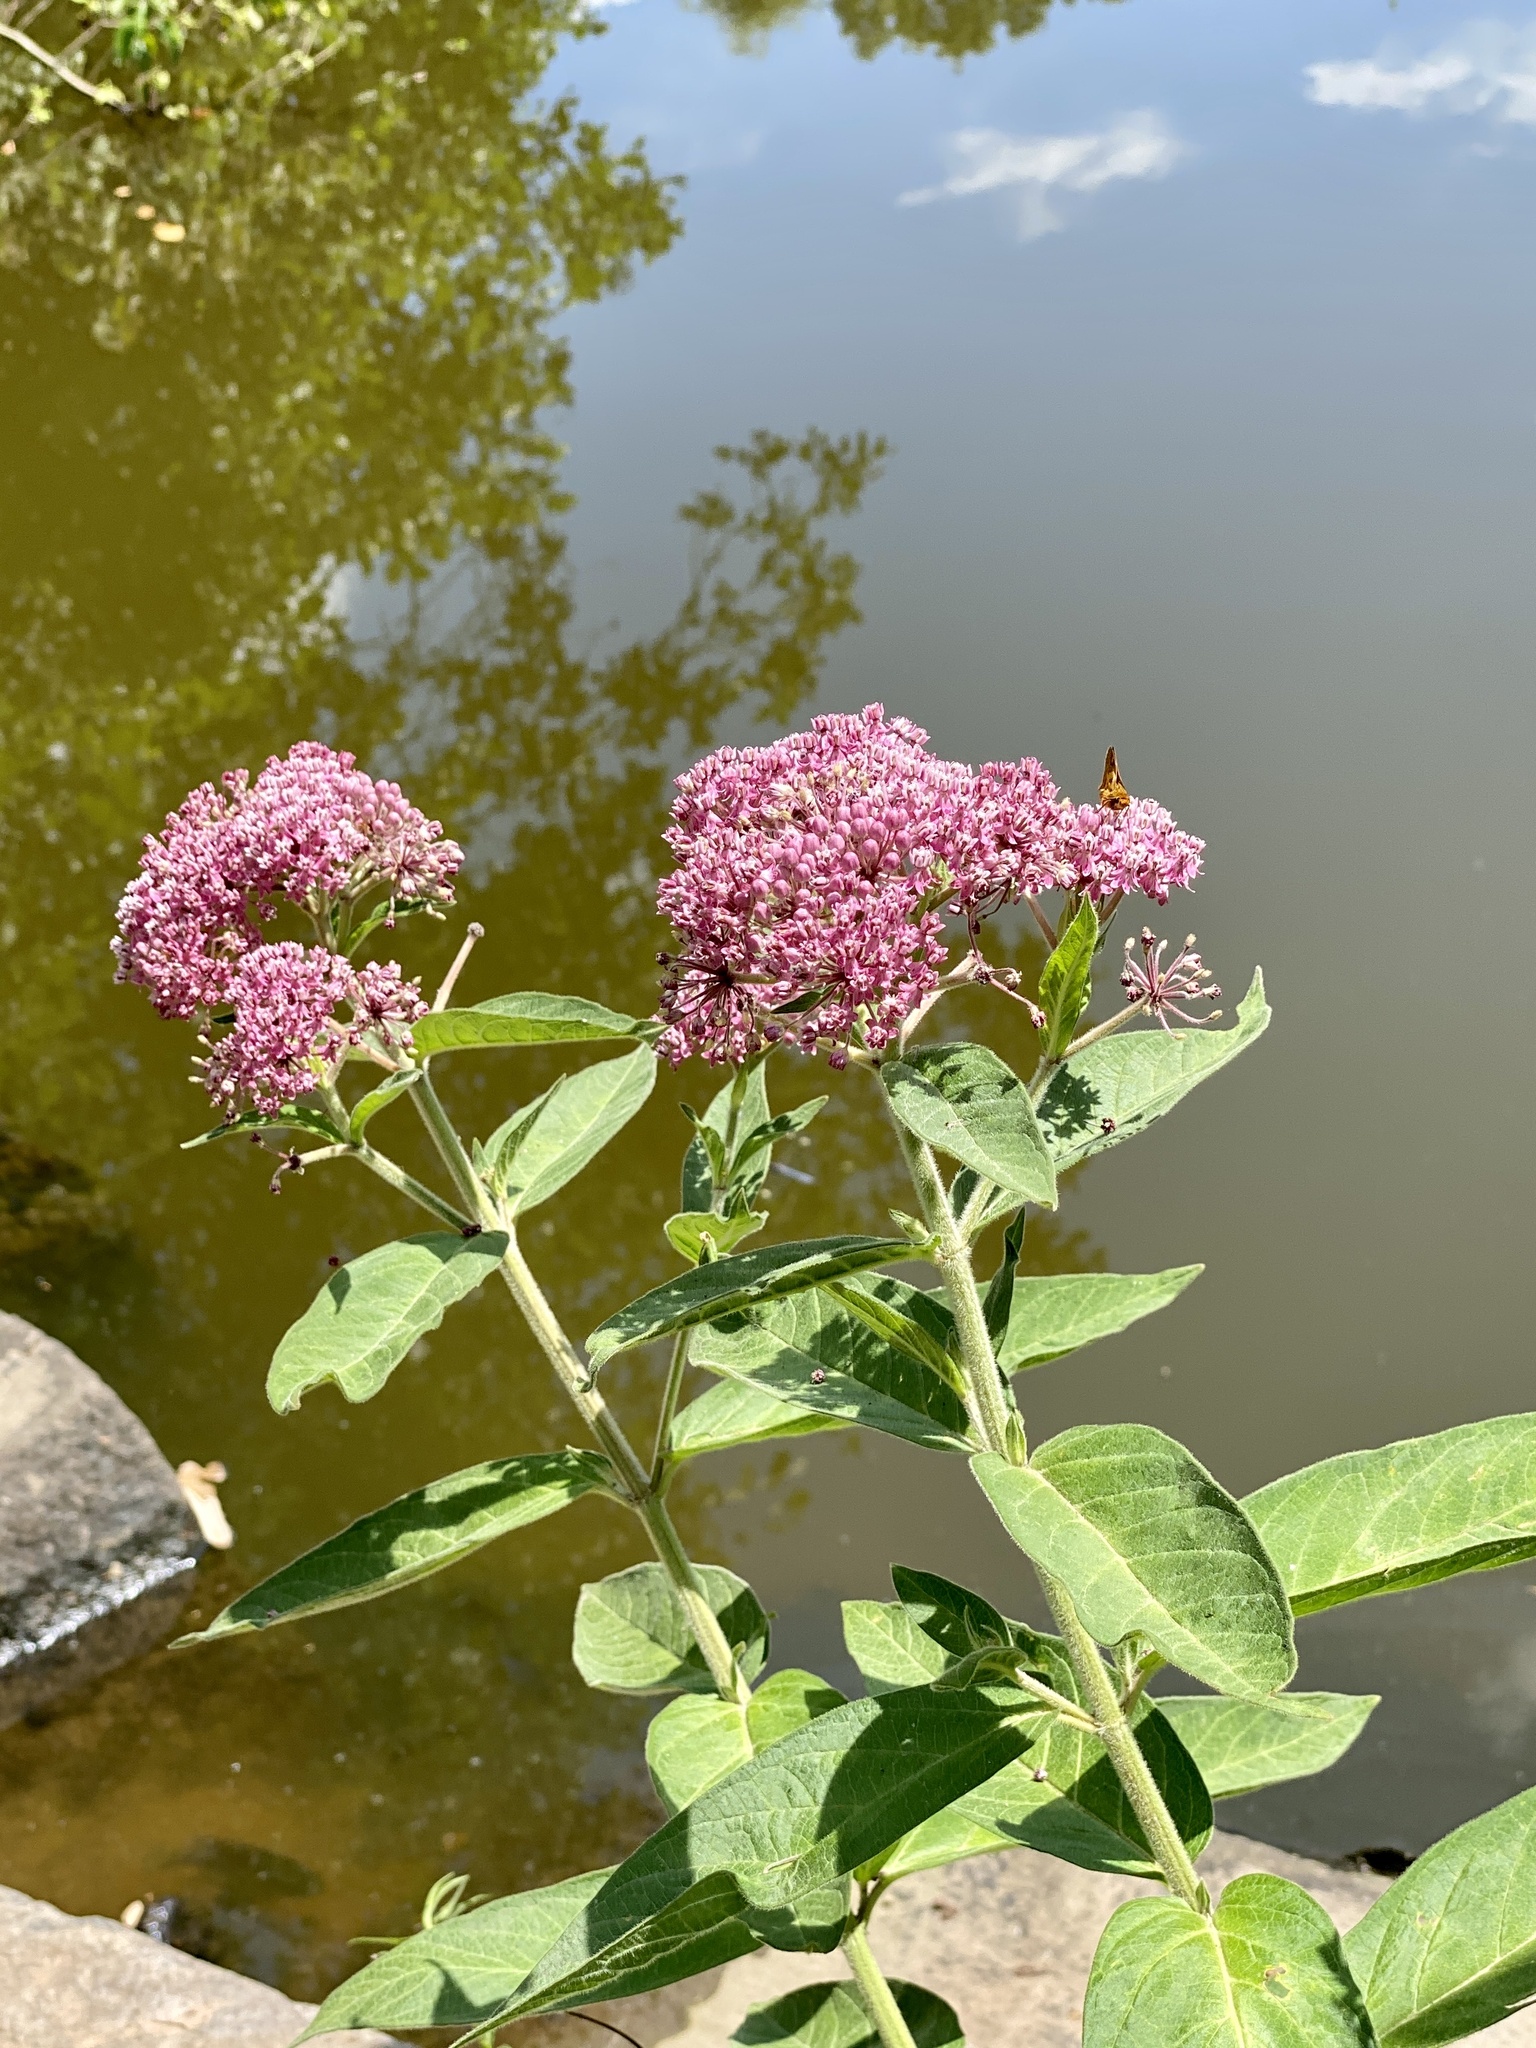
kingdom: Plantae
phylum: Tracheophyta
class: Magnoliopsida
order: Gentianales
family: Apocynaceae
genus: Asclepias
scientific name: Asclepias incarnata
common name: Swamp milkweed
